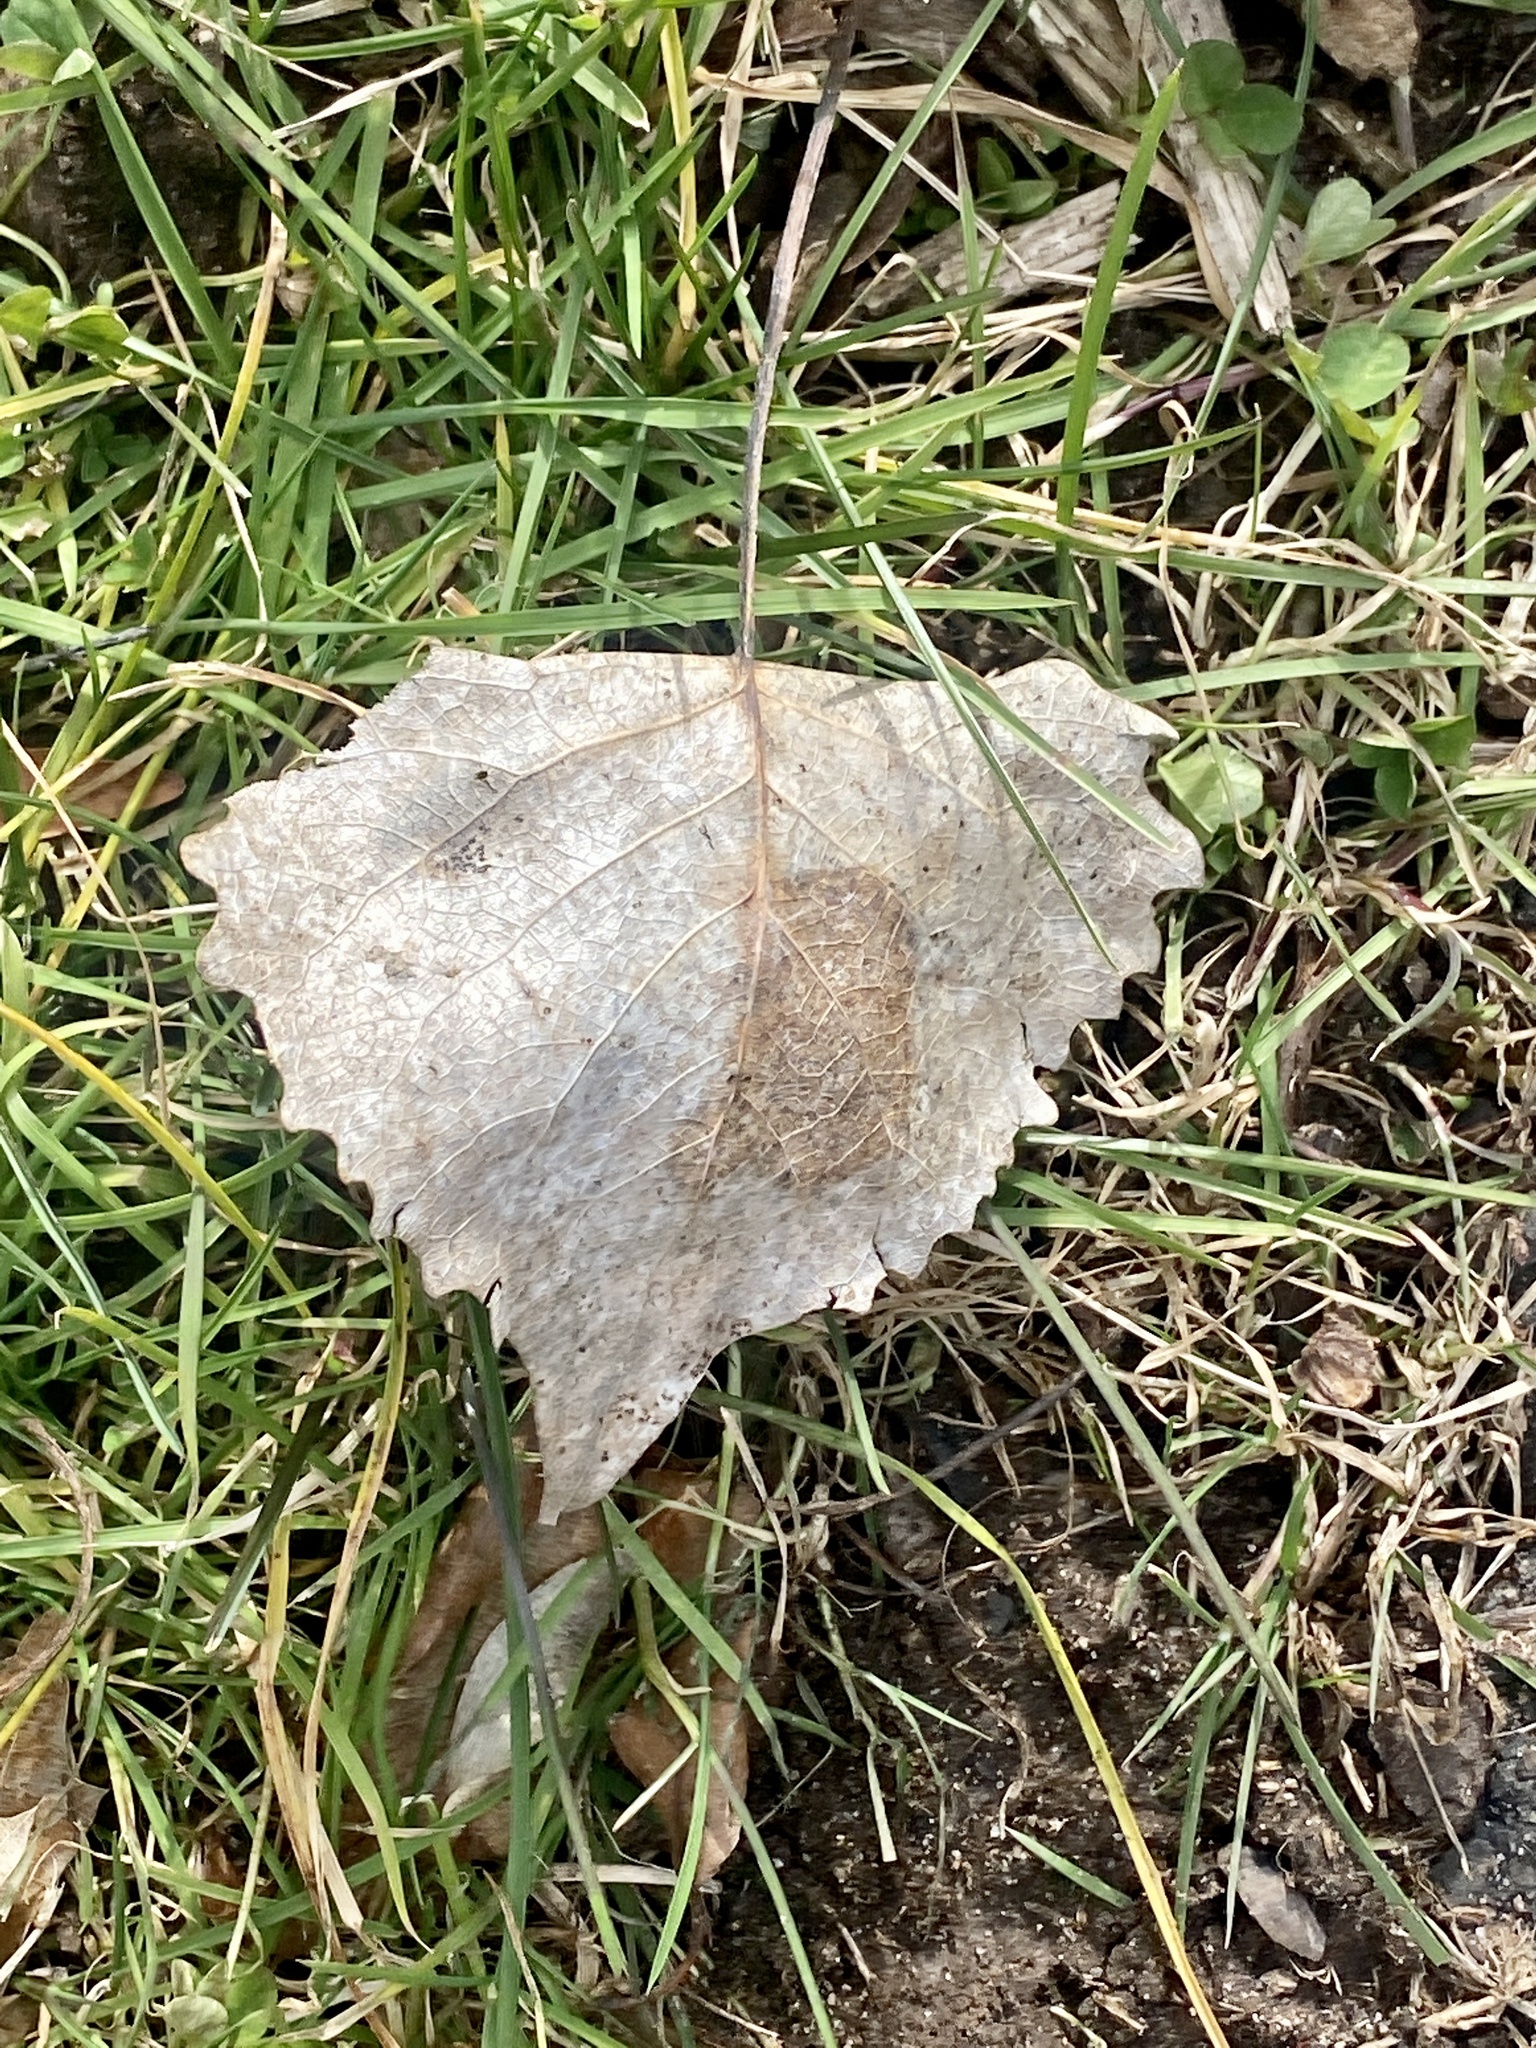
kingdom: Plantae
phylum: Tracheophyta
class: Magnoliopsida
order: Malpighiales
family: Salicaceae
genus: Populus
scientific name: Populus deltoides
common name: Eastern cottonwood
